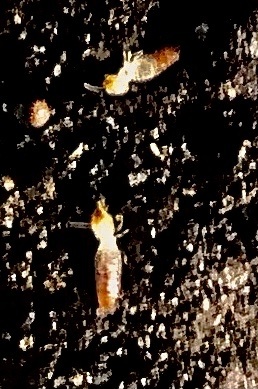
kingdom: Animalia
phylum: Arthropoda
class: Insecta
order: Blattodea
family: Termitidae
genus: Amitermes
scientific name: Amitermes hastatus
